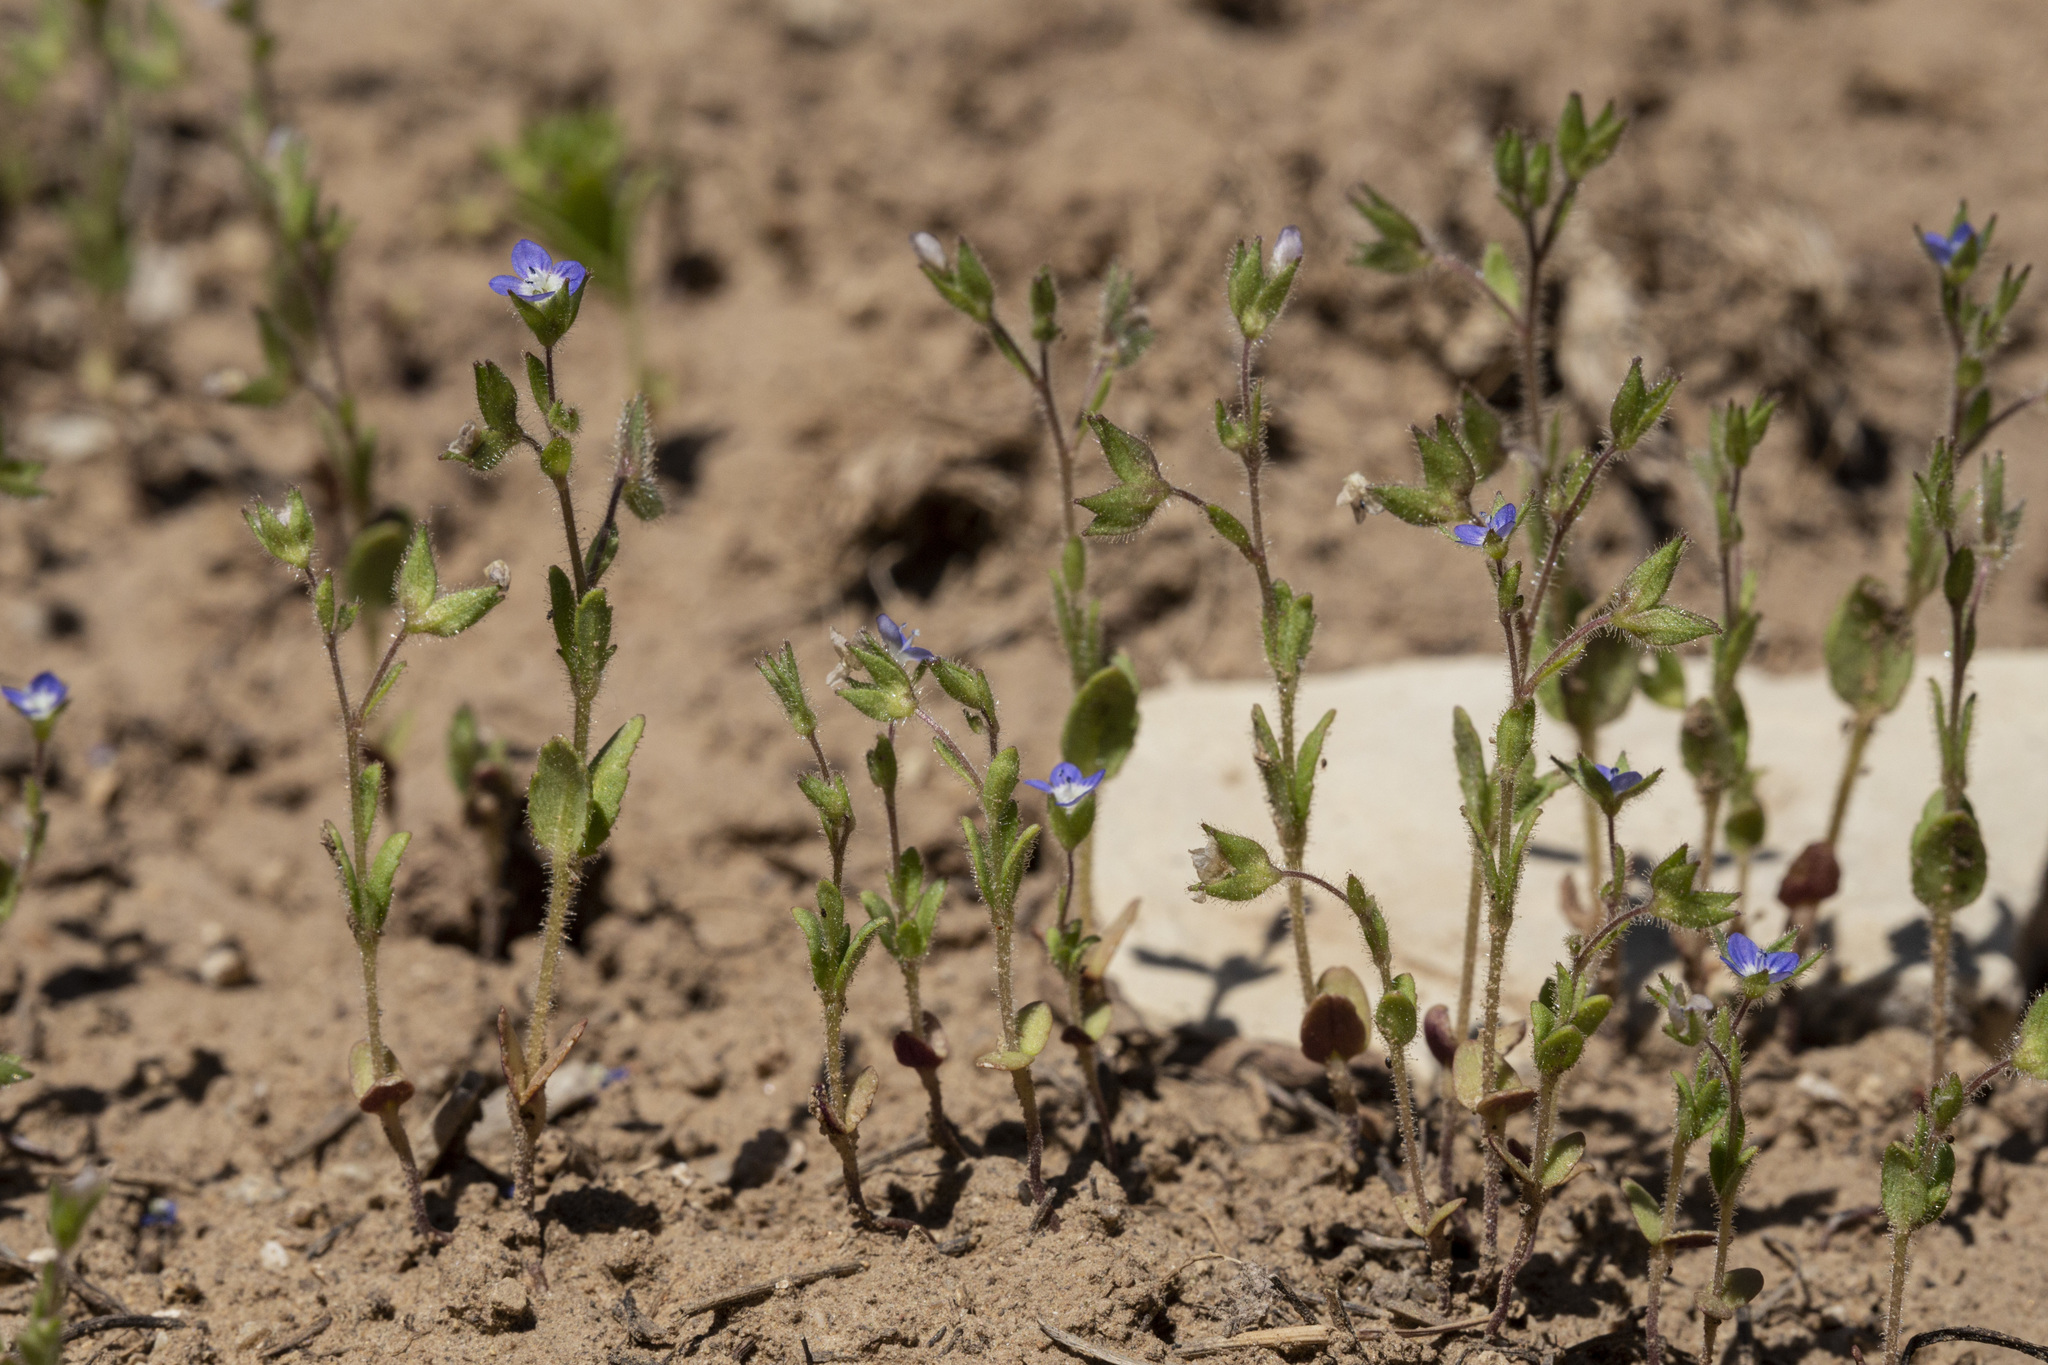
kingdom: Plantae
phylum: Tracheophyta
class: Magnoliopsida
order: Lamiales
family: Plantaginaceae
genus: Veronica
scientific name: Veronica biloba
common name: Twolobe speedwell
